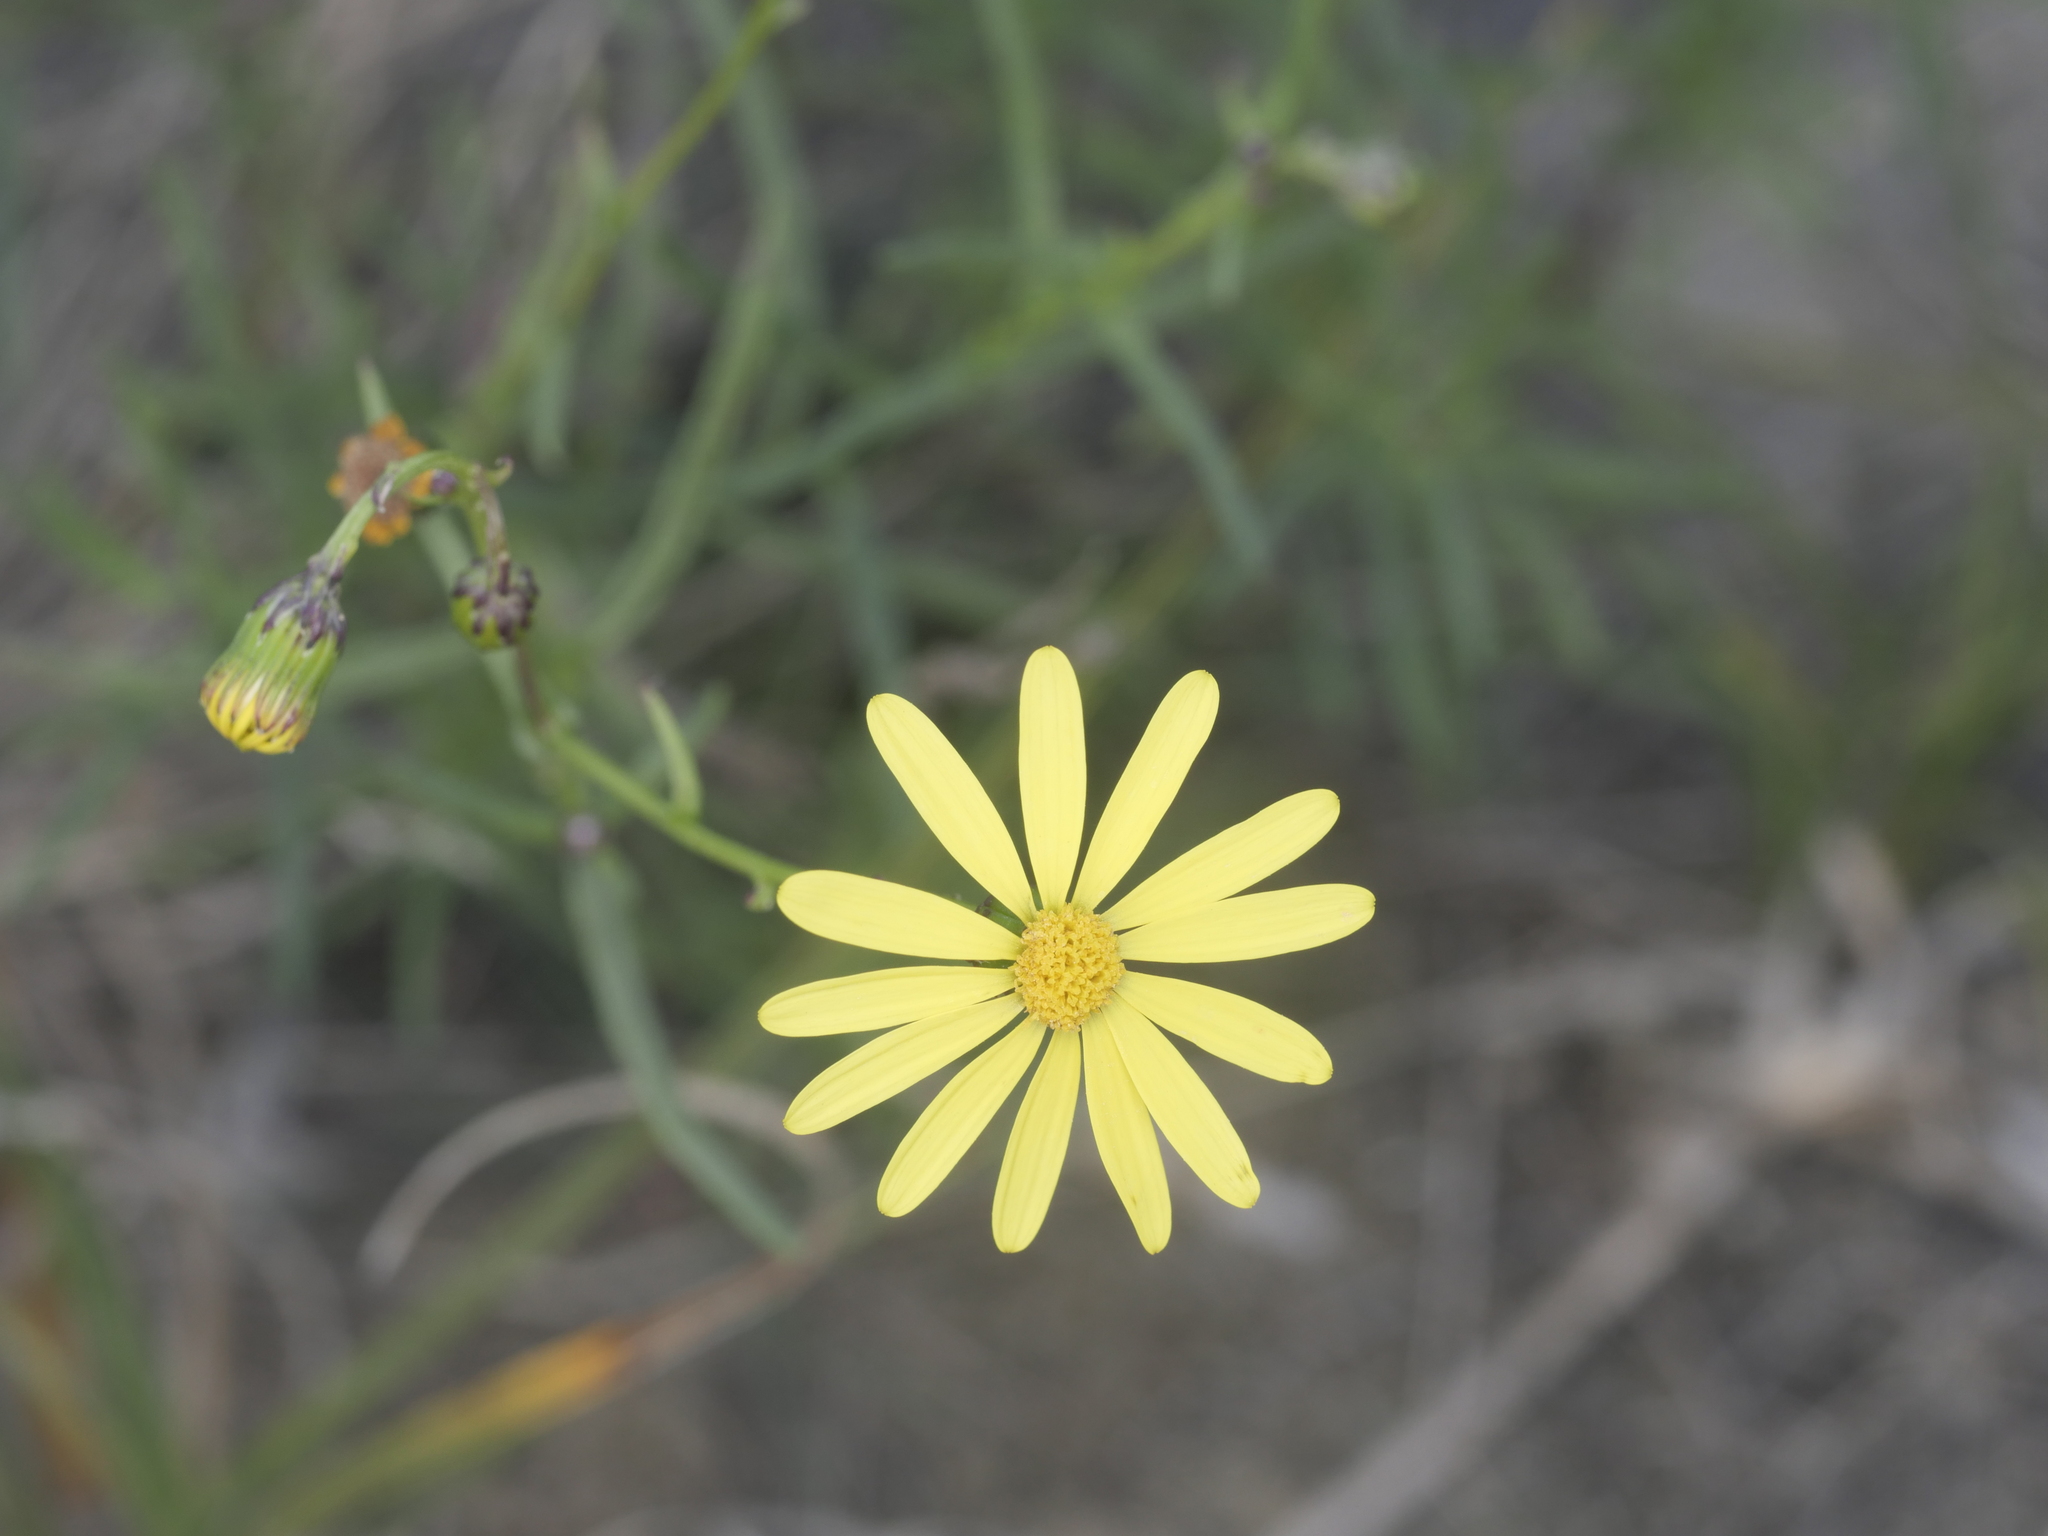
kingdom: Plantae
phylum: Tracheophyta
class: Magnoliopsida
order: Asterales
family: Asteraceae
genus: Senecio
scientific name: Senecio inaequidens
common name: Narrow-leaved ragwort
